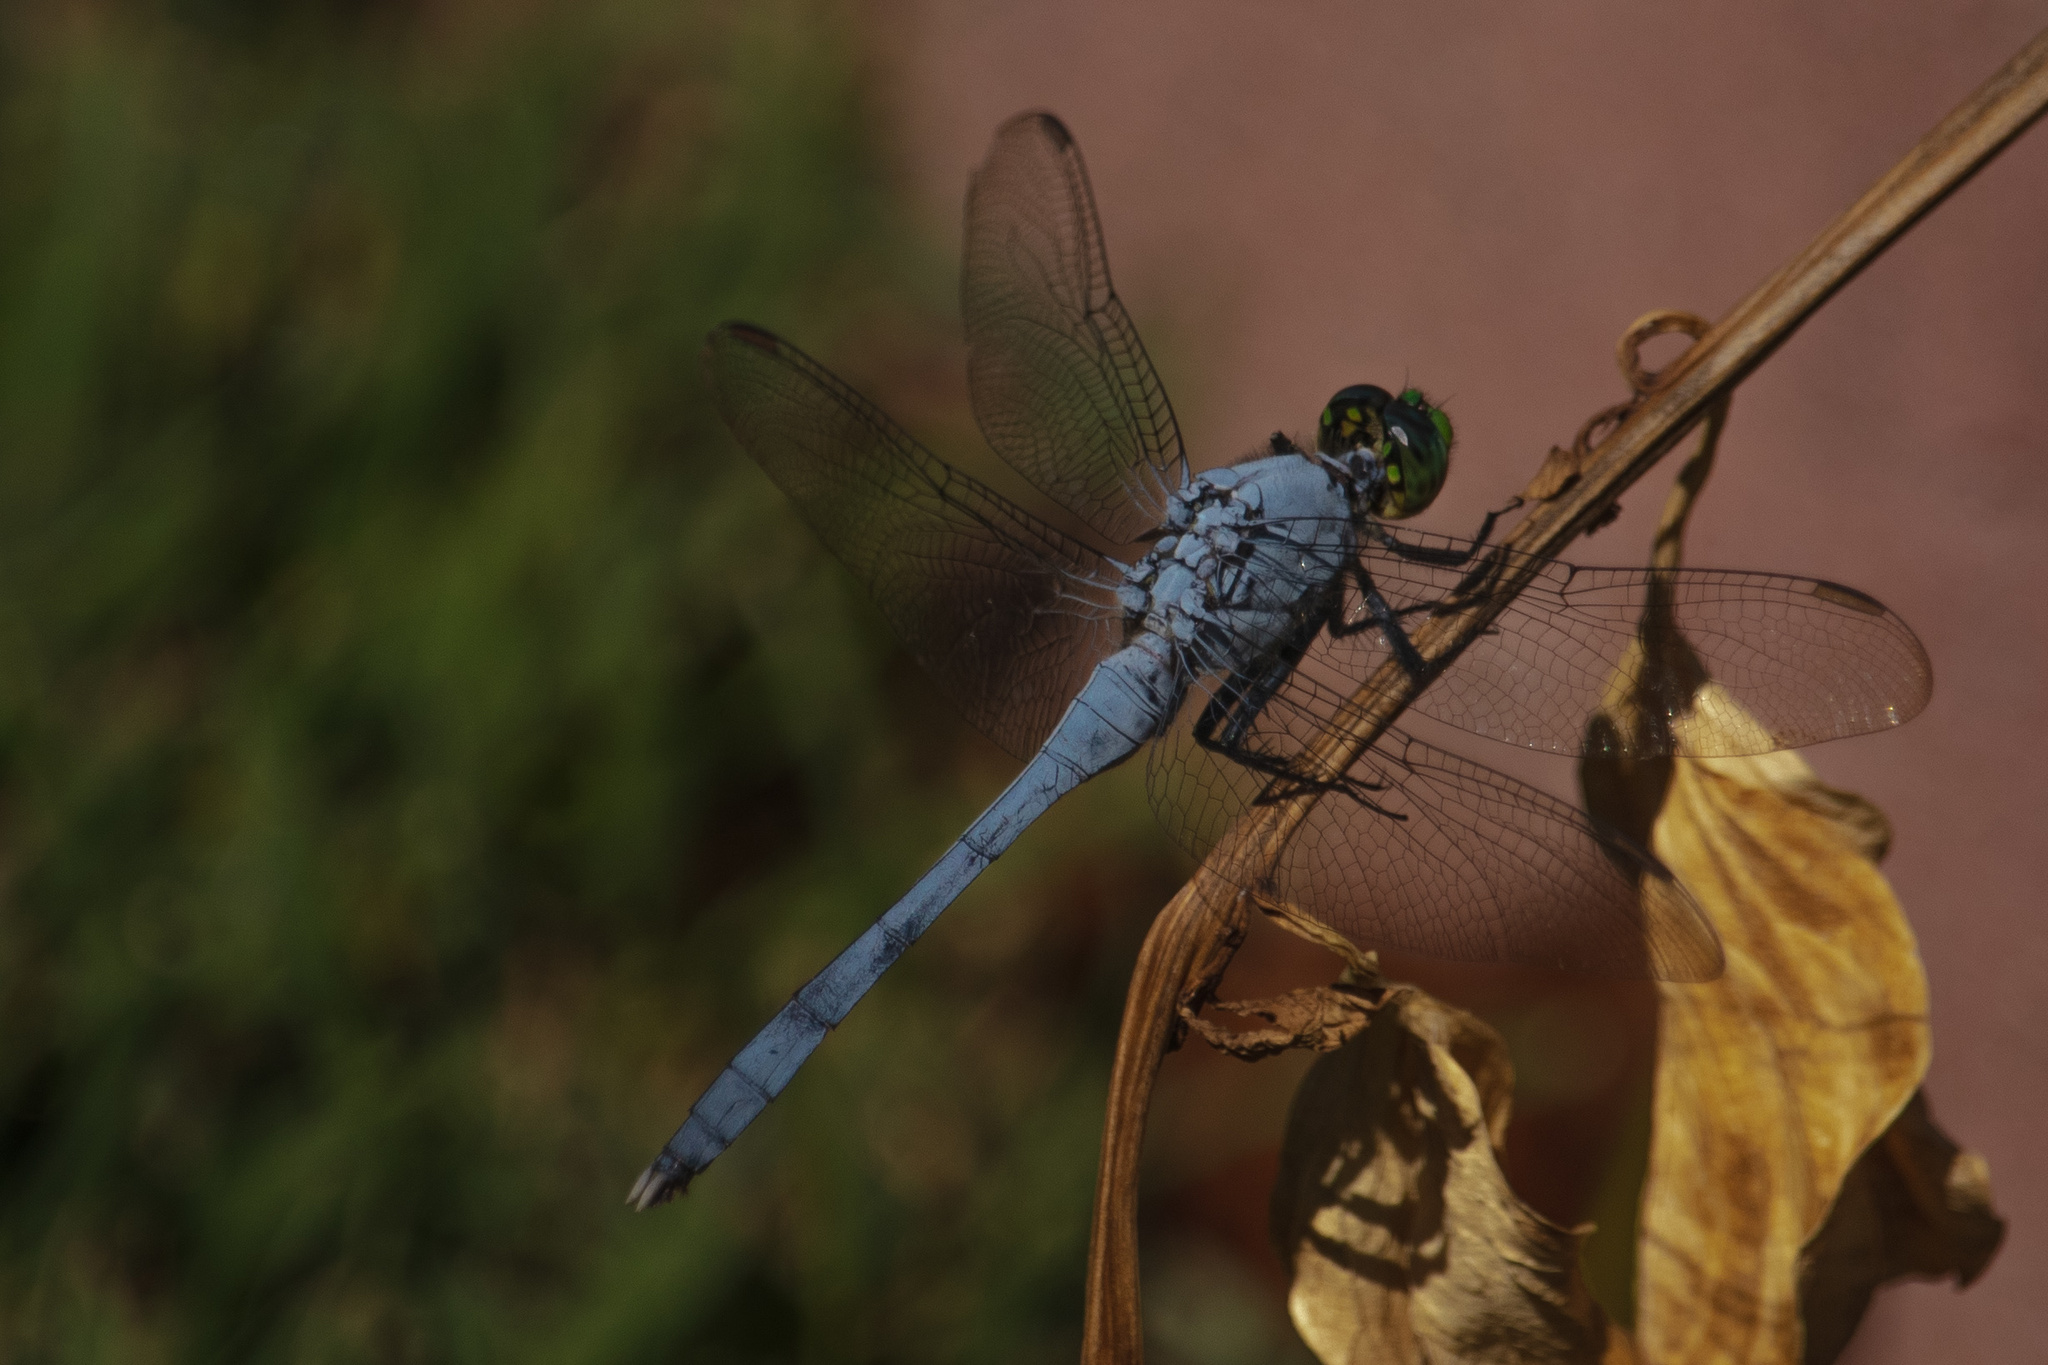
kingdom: Animalia
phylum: Arthropoda
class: Insecta
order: Odonata
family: Libellulidae
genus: Erythemis
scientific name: Erythemis simplicicollis
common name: Eastern pondhawk
